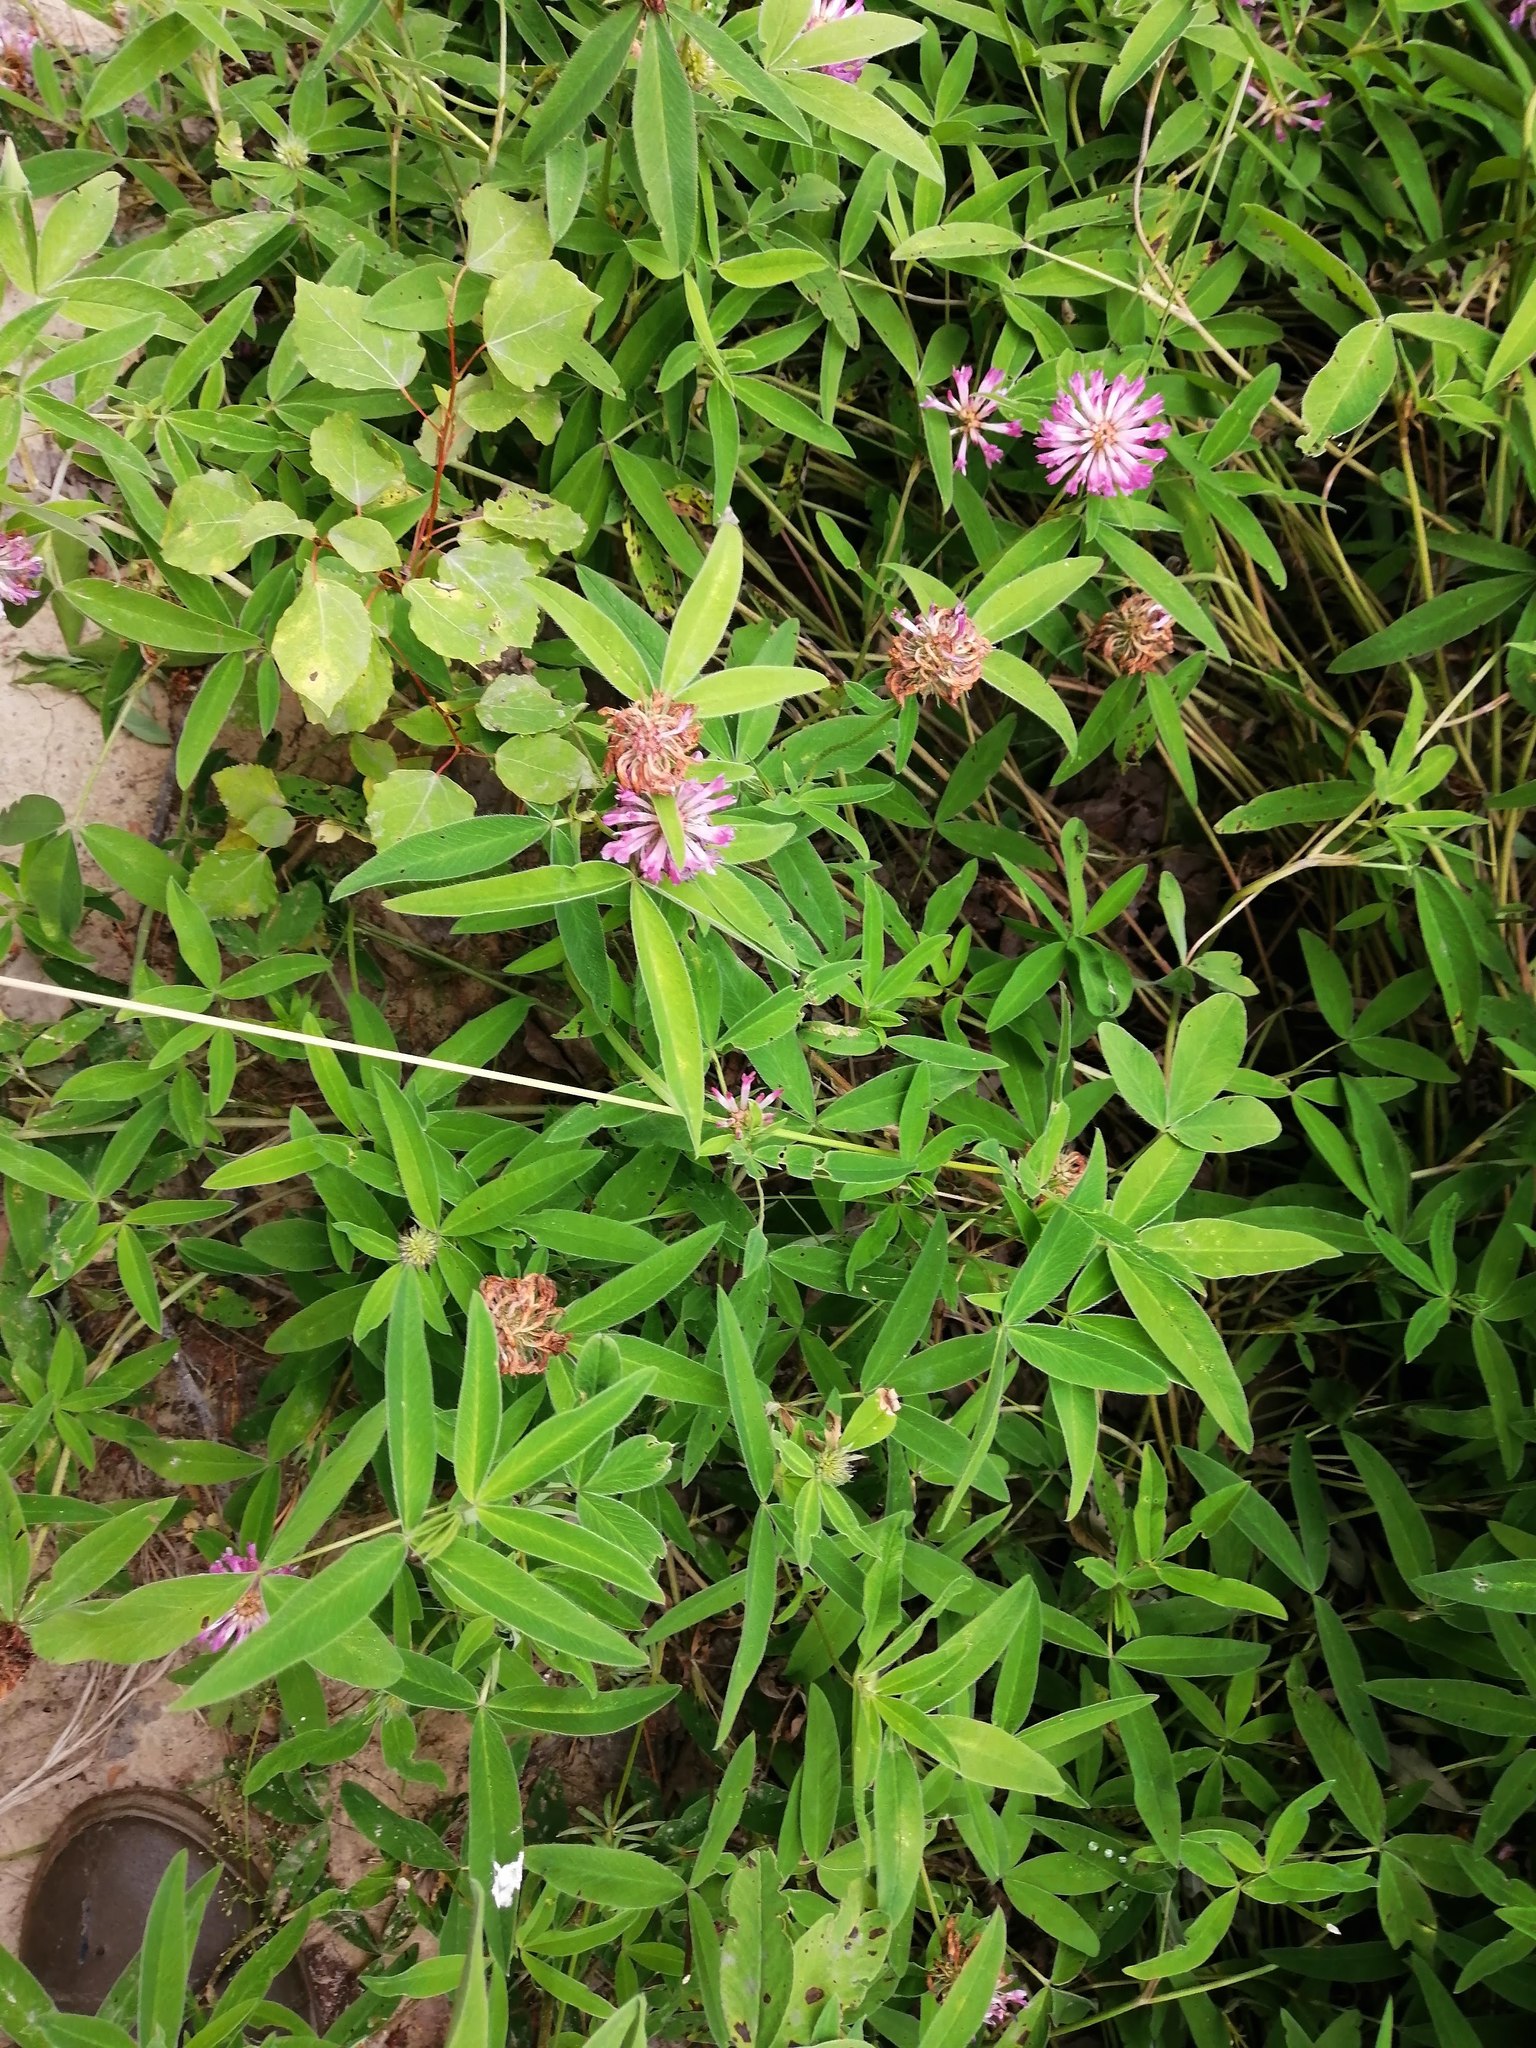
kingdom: Plantae
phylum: Tracheophyta
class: Magnoliopsida
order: Fabales
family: Fabaceae
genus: Trifolium
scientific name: Trifolium medium
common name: Zigzag clover
